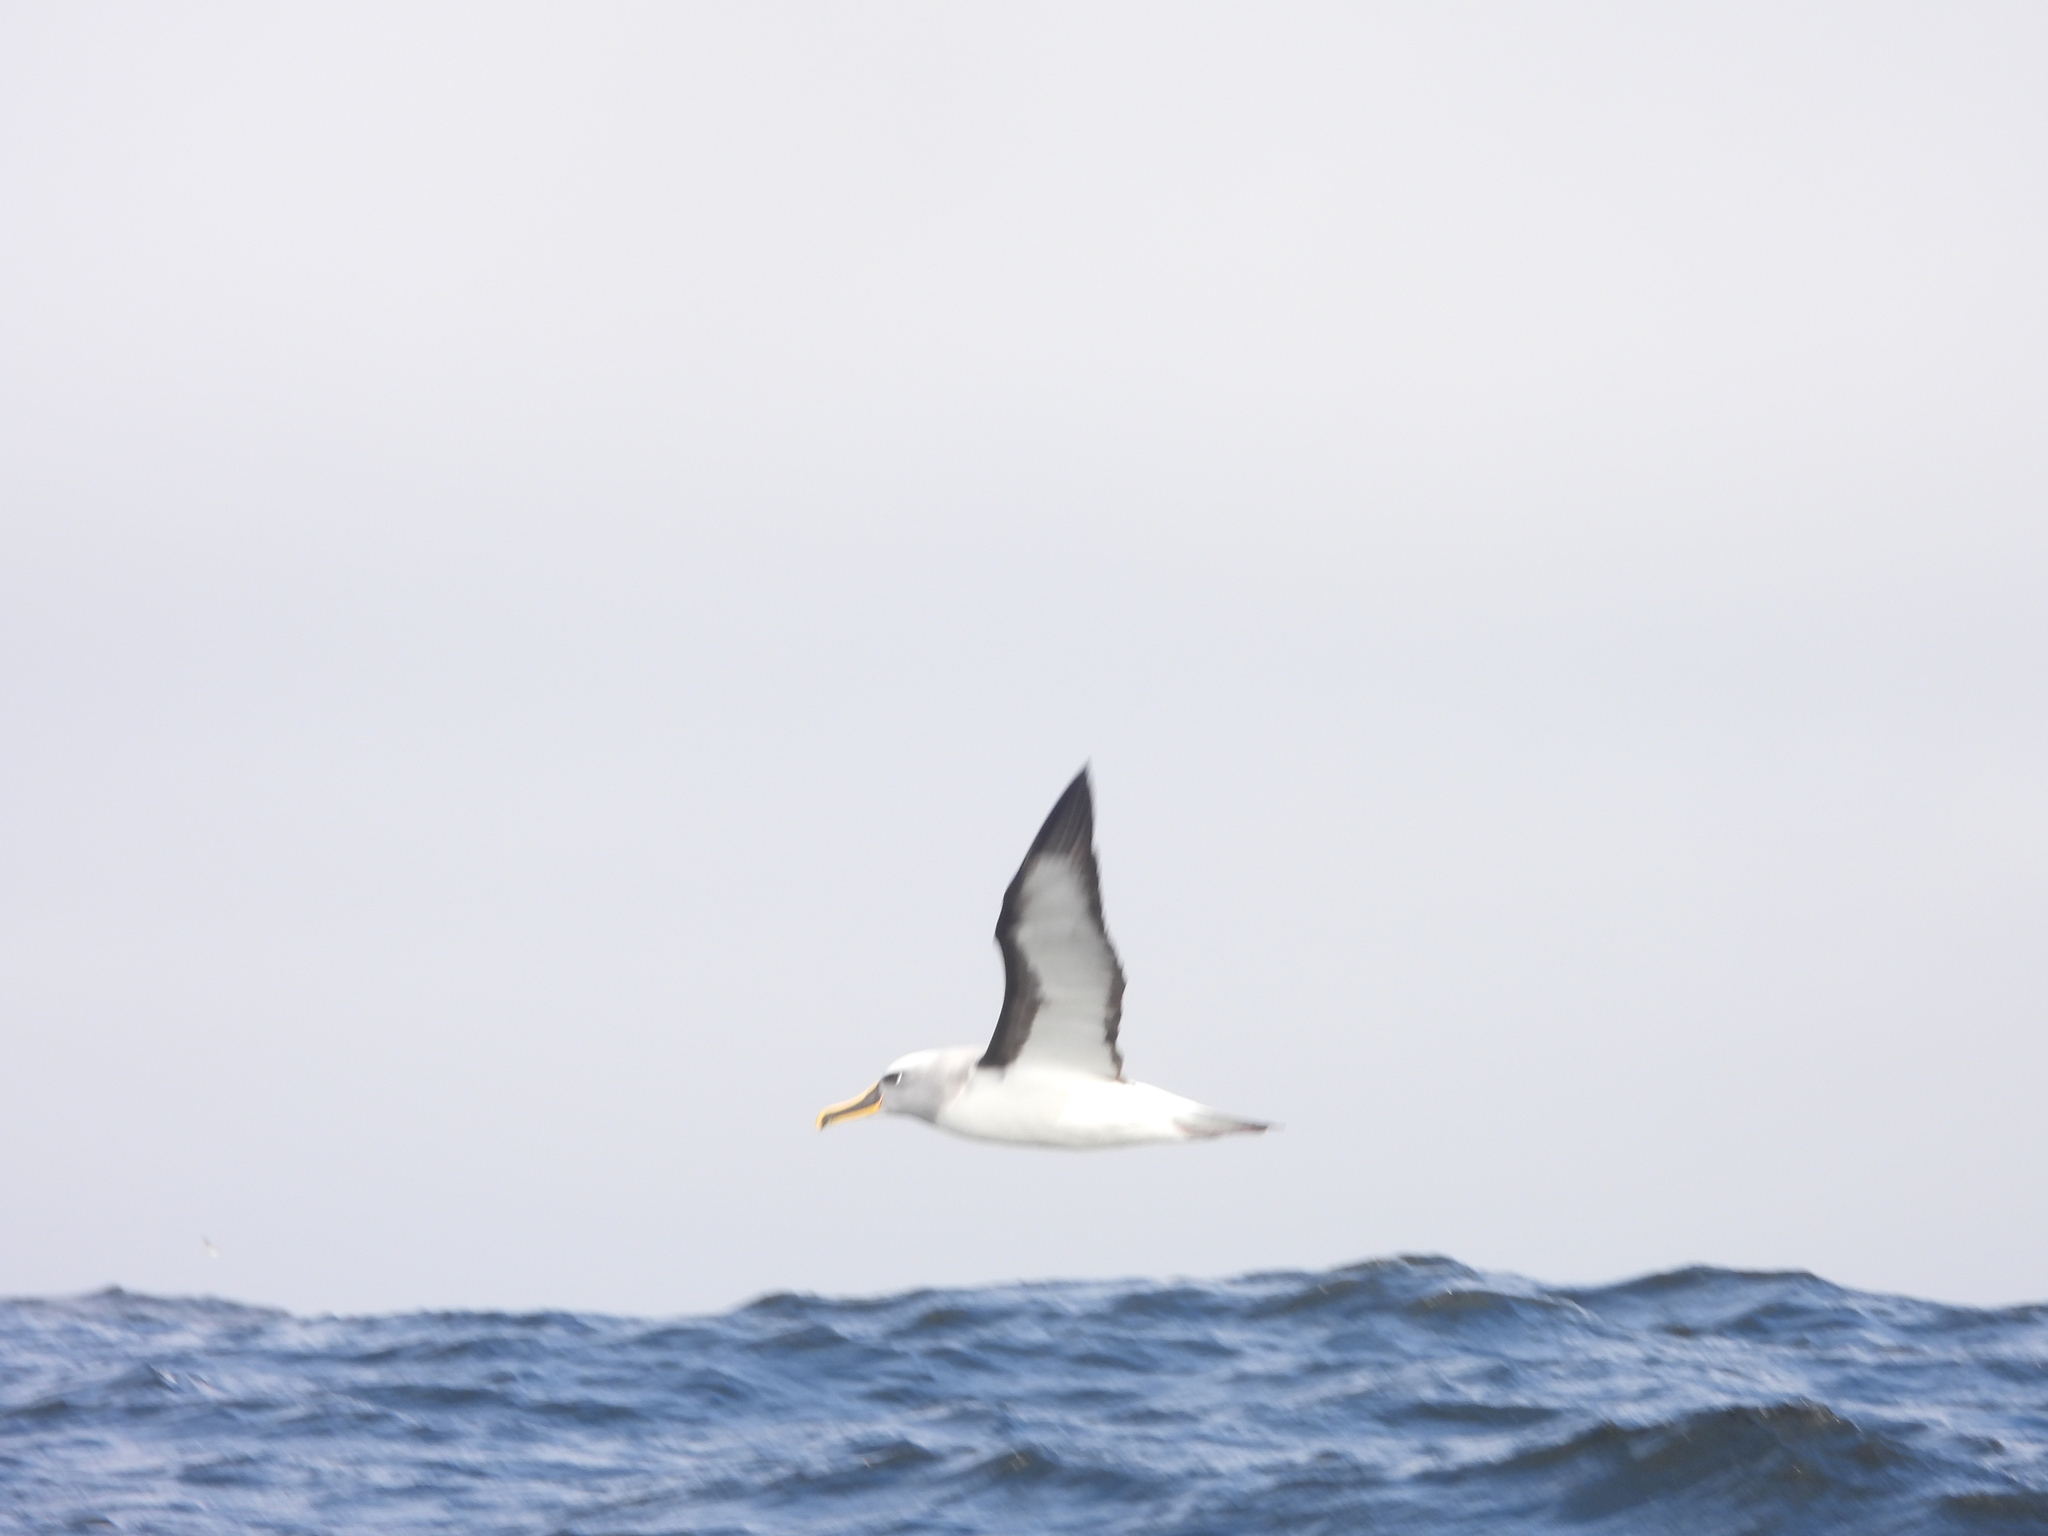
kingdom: Animalia
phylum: Chordata
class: Aves
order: Procellariiformes
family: Diomedeidae
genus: Thalassarche
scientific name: Thalassarche bulleri
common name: Buller's albatross
